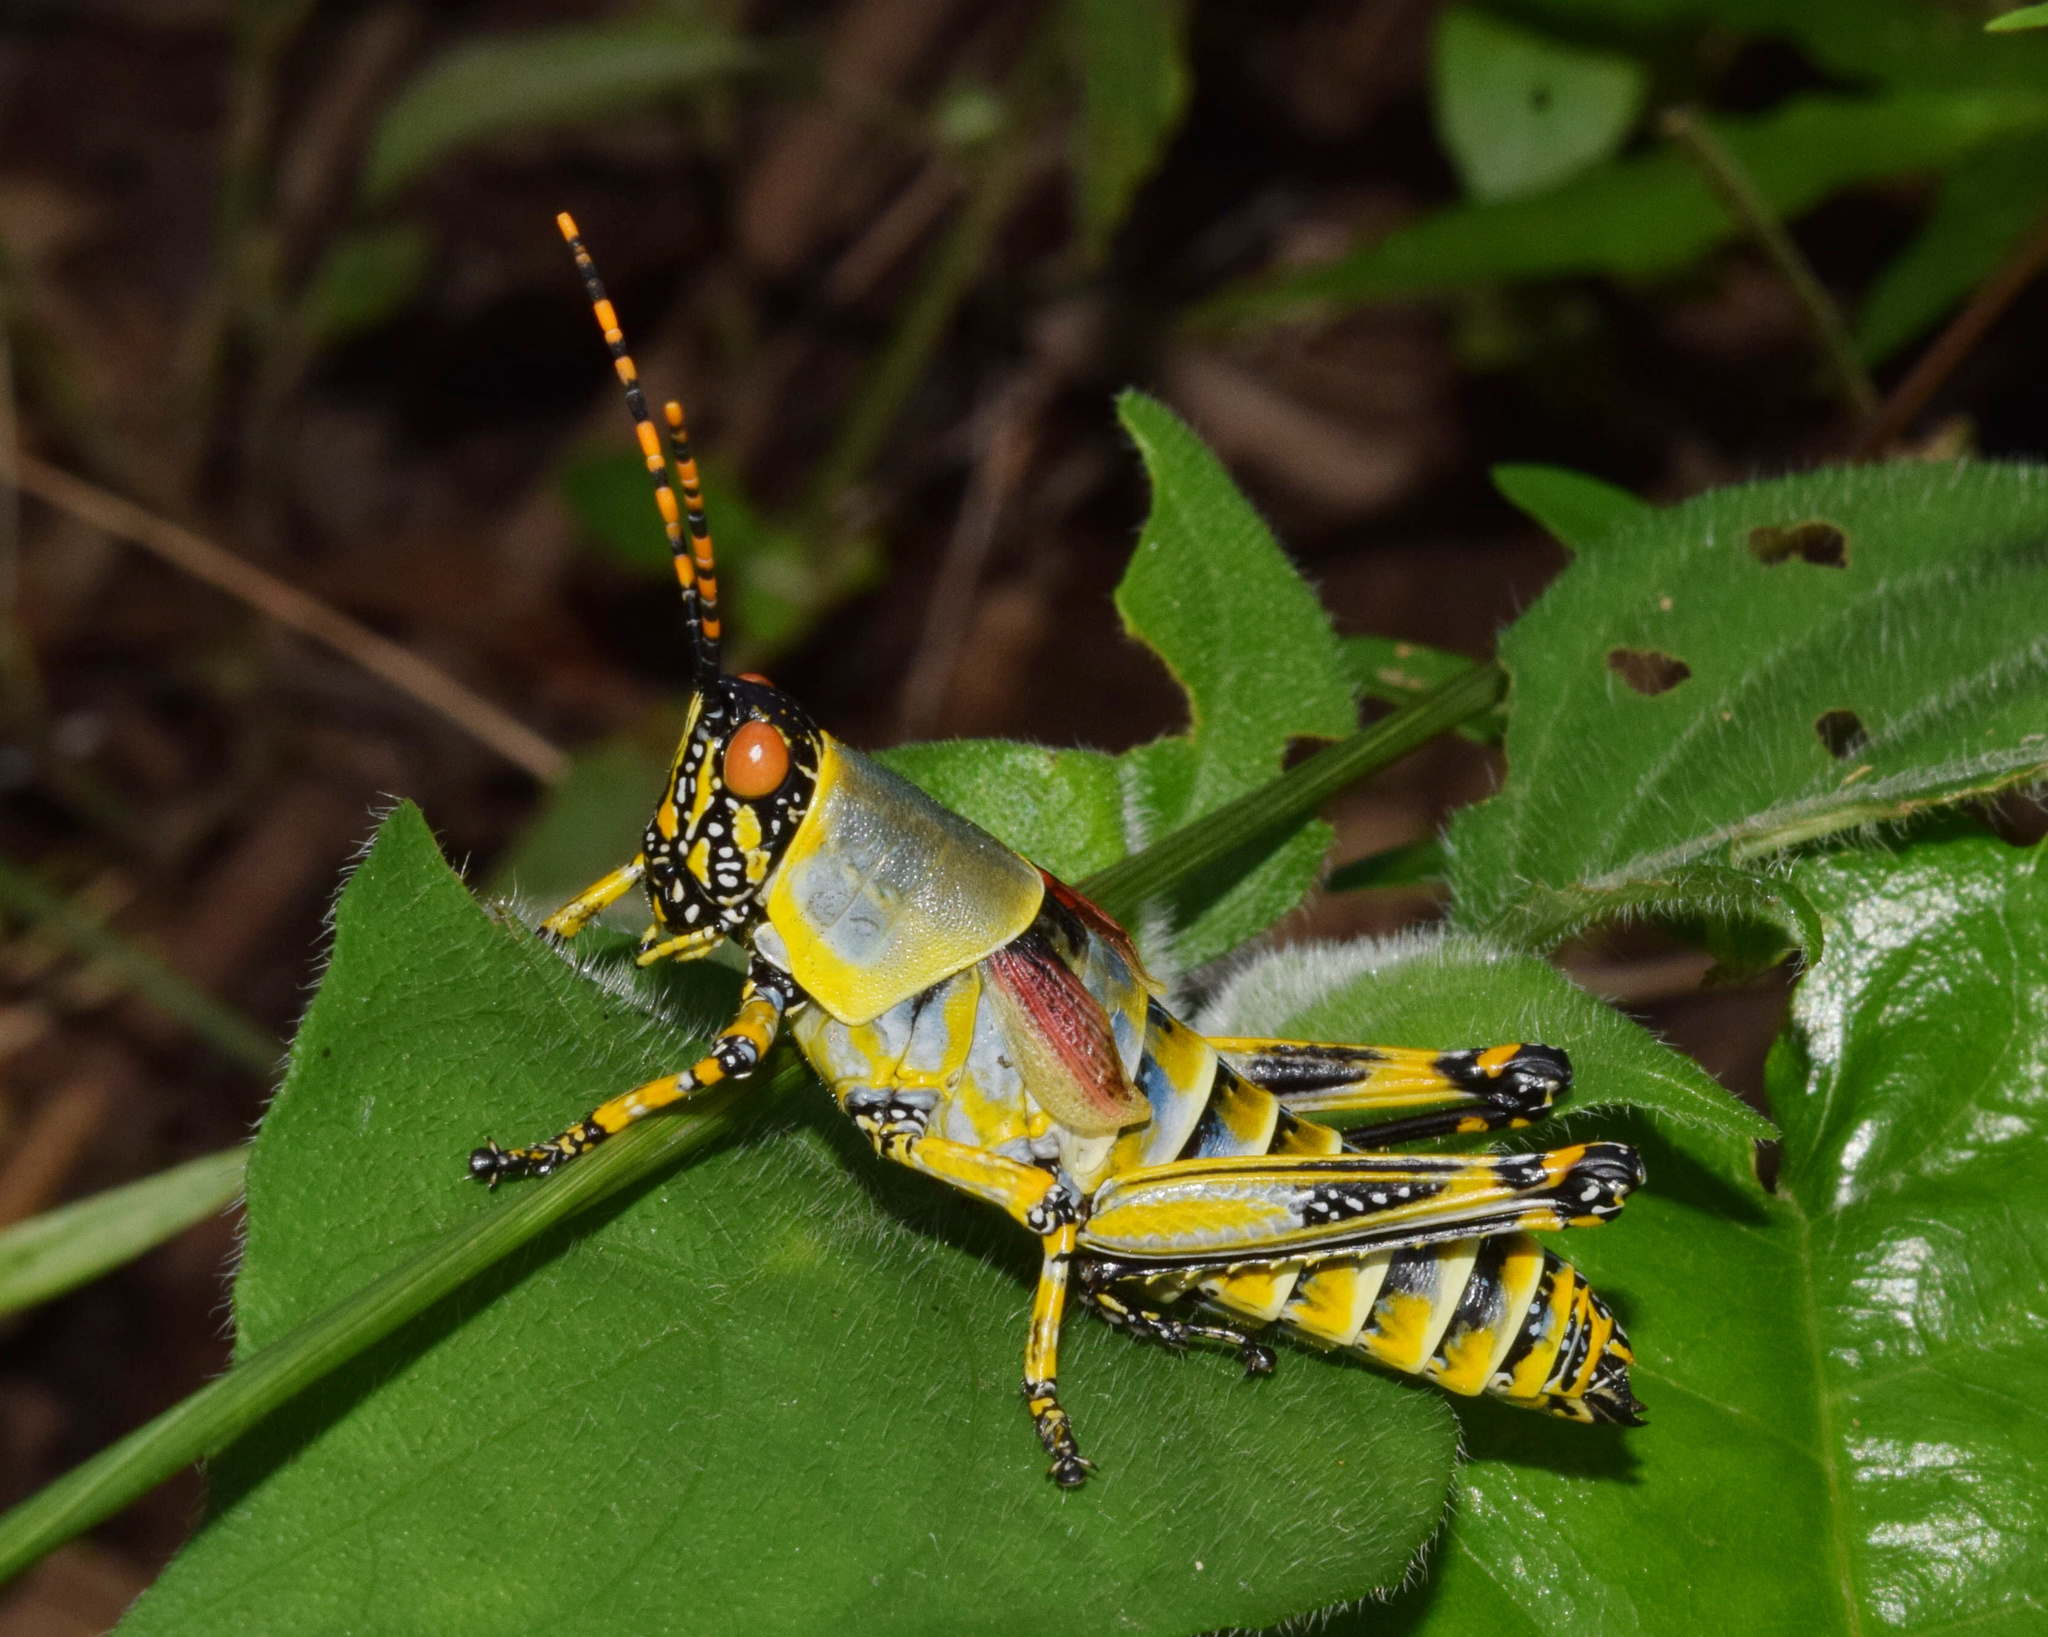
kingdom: Animalia
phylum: Arthropoda
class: Insecta
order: Orthoptera
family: Pyrgomorphidae
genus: Zonocerus
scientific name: Zonocerus elegans
